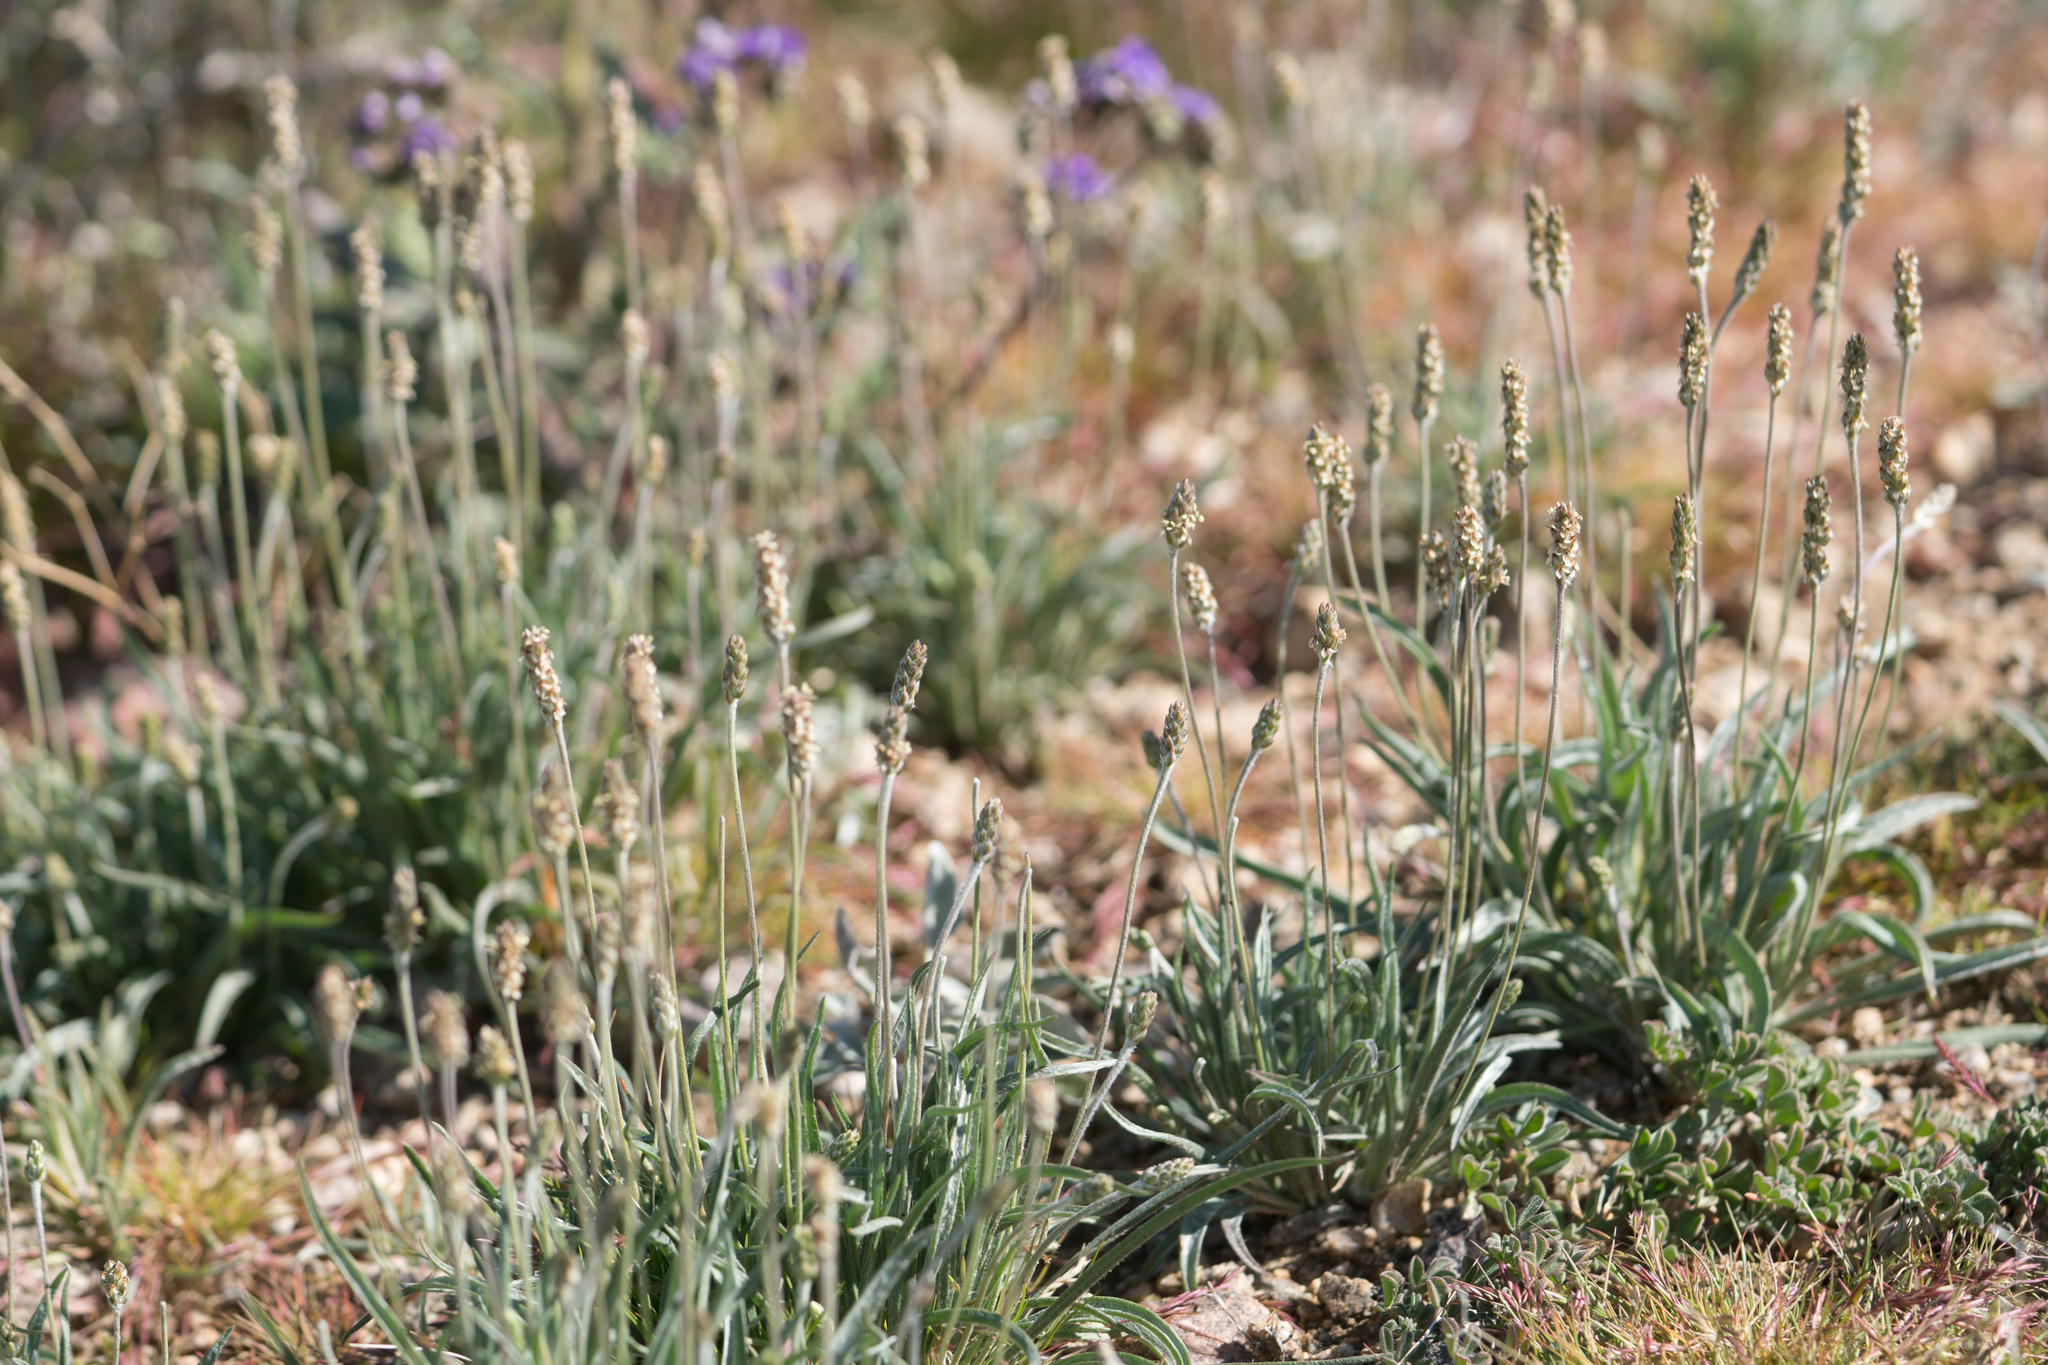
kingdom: Plantae
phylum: Tracheophyta
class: Magnoliopsida
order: Lamiales
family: Plantaginaceae
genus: Plantago
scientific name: Plantago ovata
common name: Blond plantain
